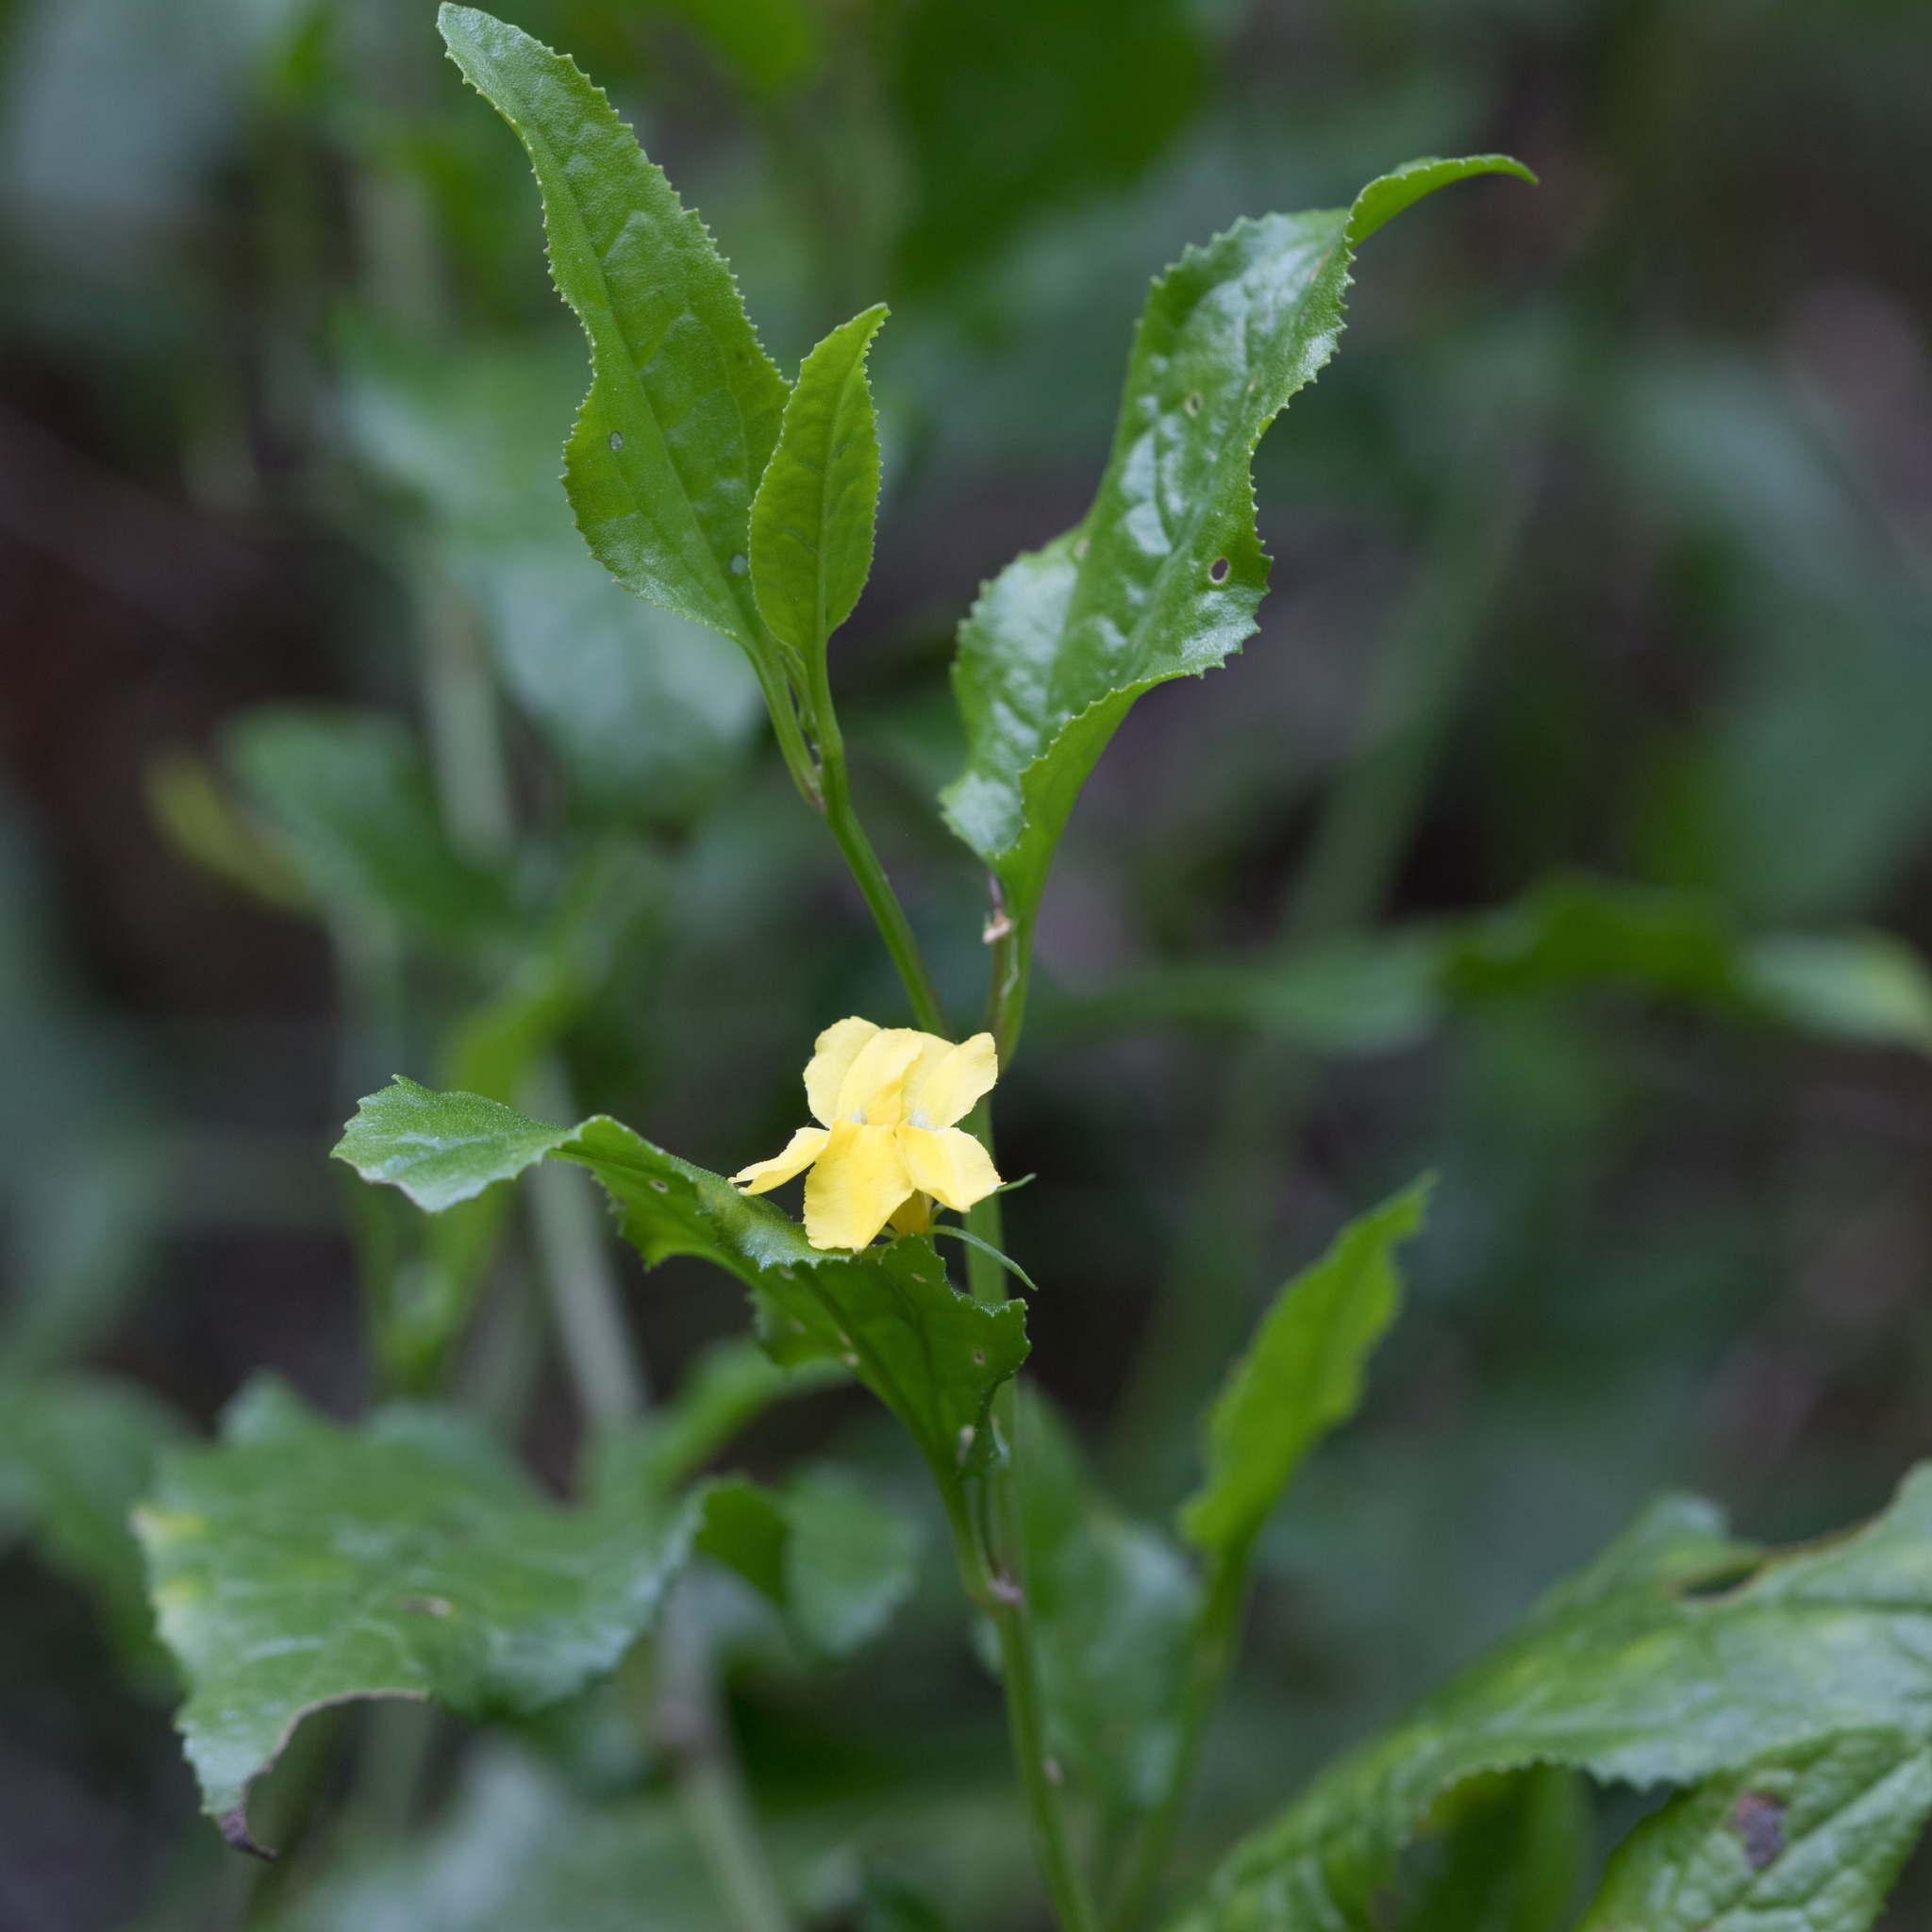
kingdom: Plantae
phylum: Tracheophyta
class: Magnoliopsida
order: Asterales
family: Goodeniaceae
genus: Goodenia
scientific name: Goodenia ovata
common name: Hop goodenia
